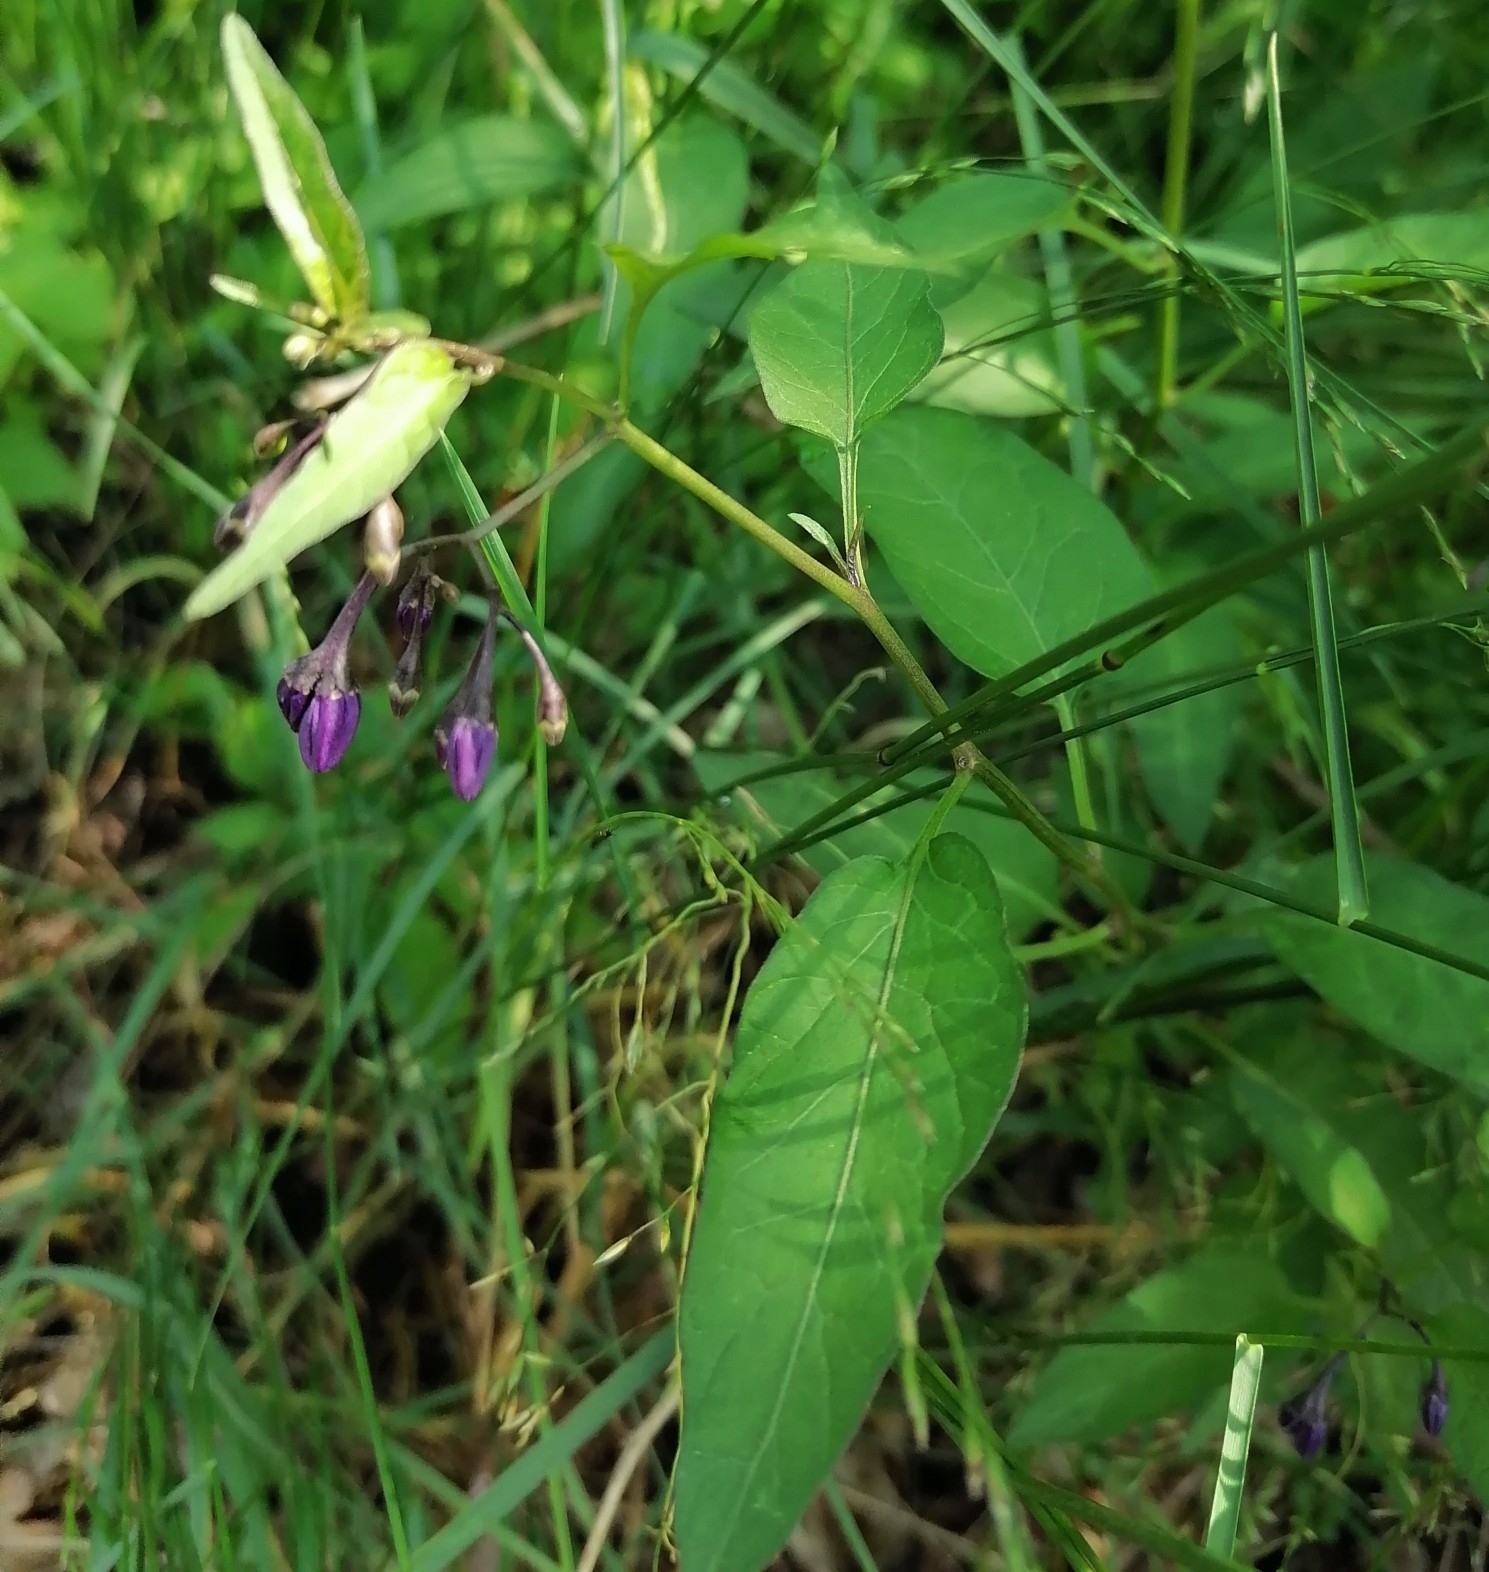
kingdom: Plantae
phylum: Tracheophyta
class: Magnoliopsida
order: Solanales
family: Solanaceae
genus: Solanum
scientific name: Solanum dulcamara
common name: Climbing nightshade
